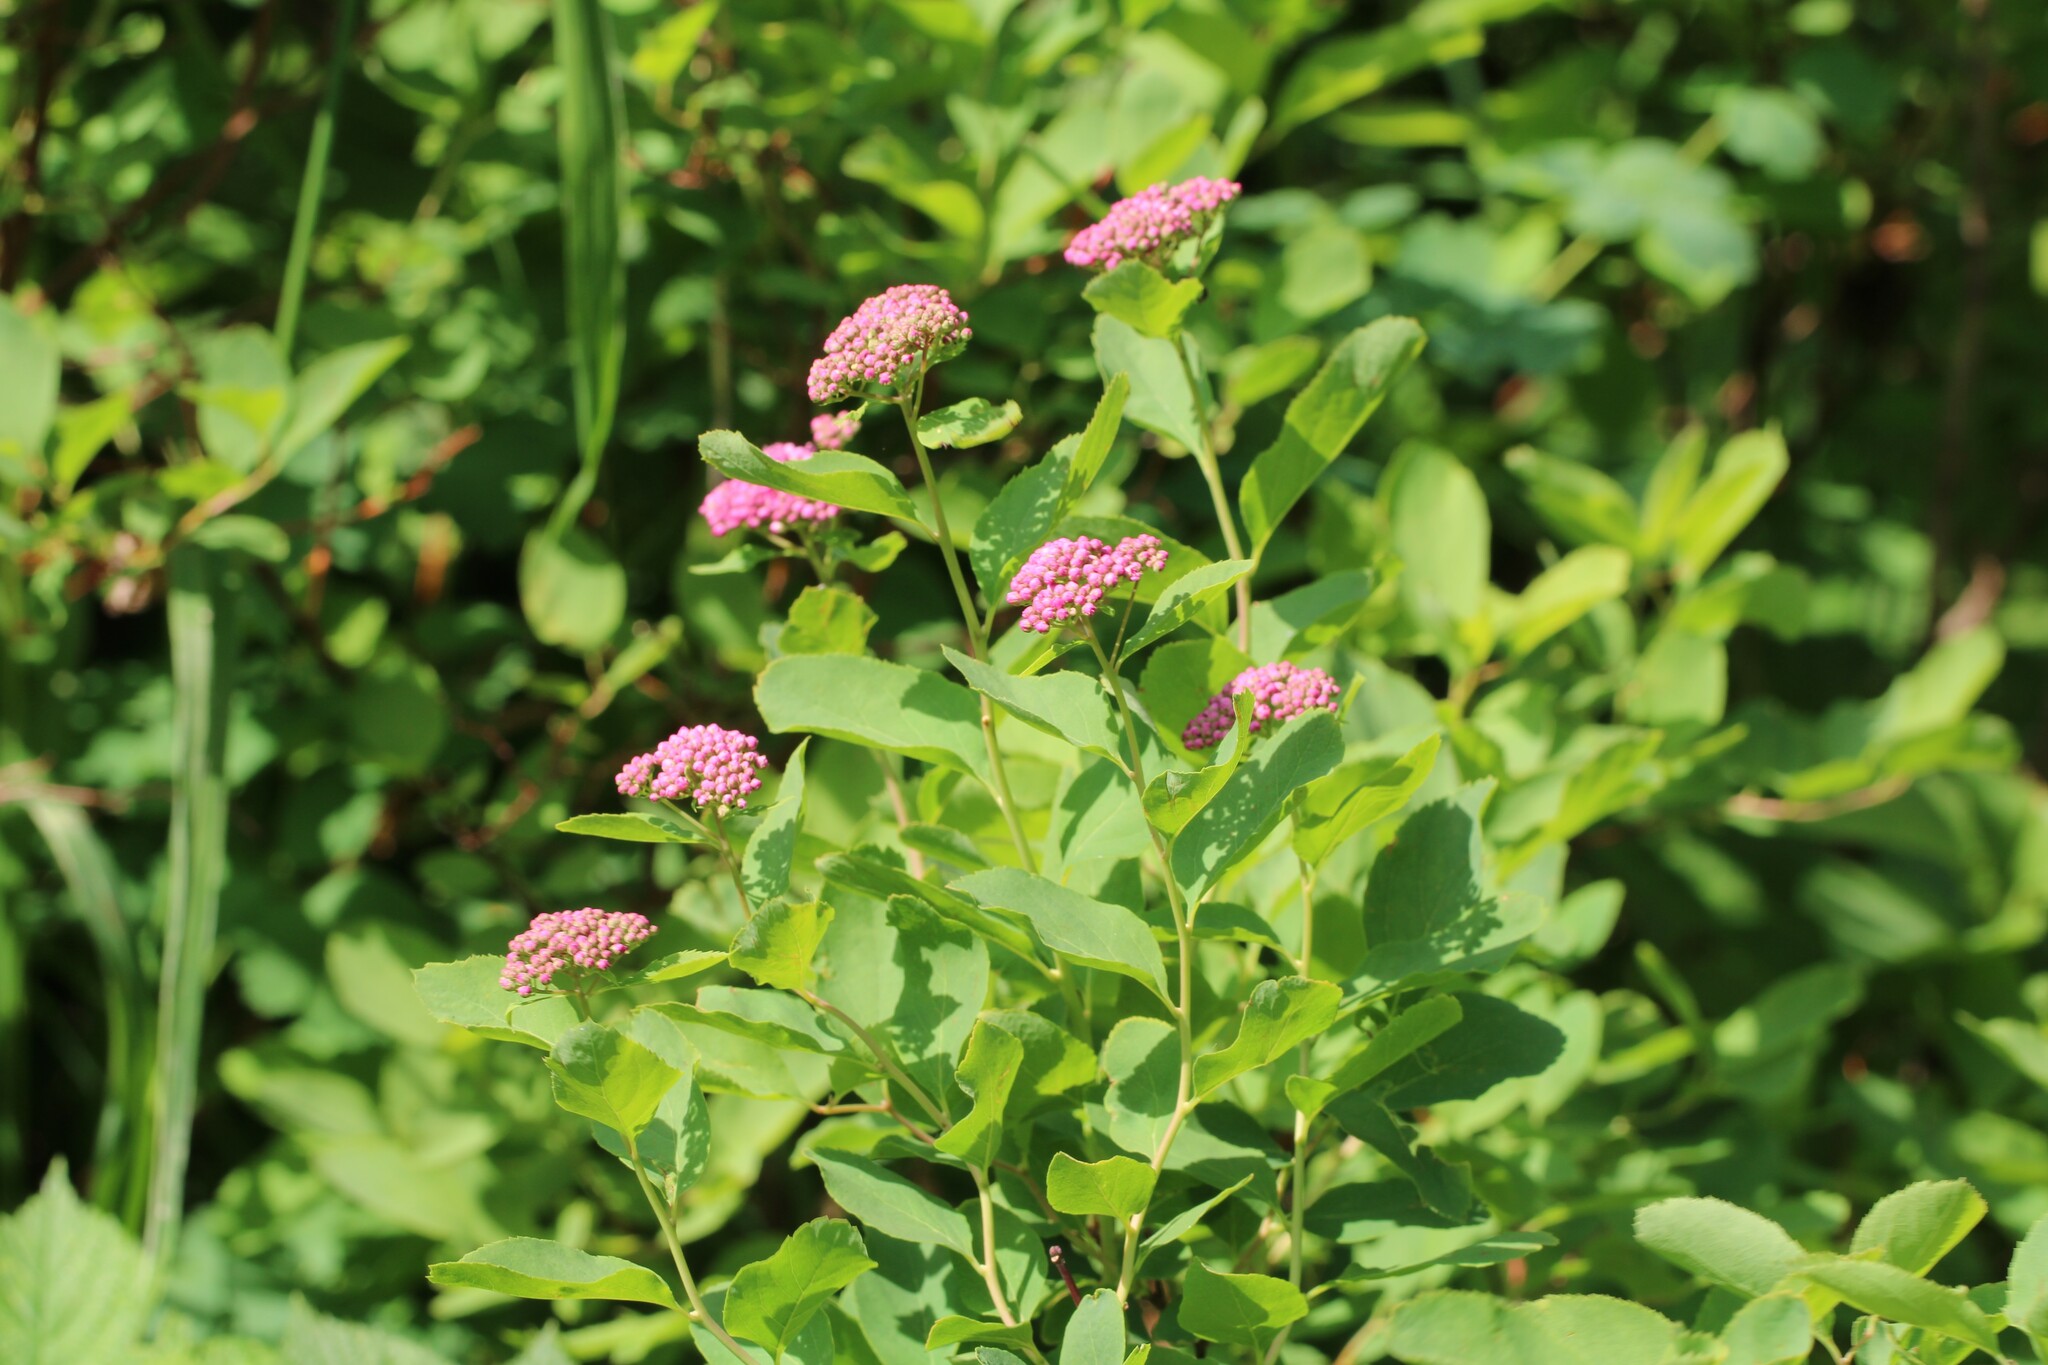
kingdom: Plantae
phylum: Tracheophyta
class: Magnoliopsida
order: Rosales
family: Rosaceae
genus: Spiraea
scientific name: Spiraea splendens
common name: Subalpine meadowsweet
